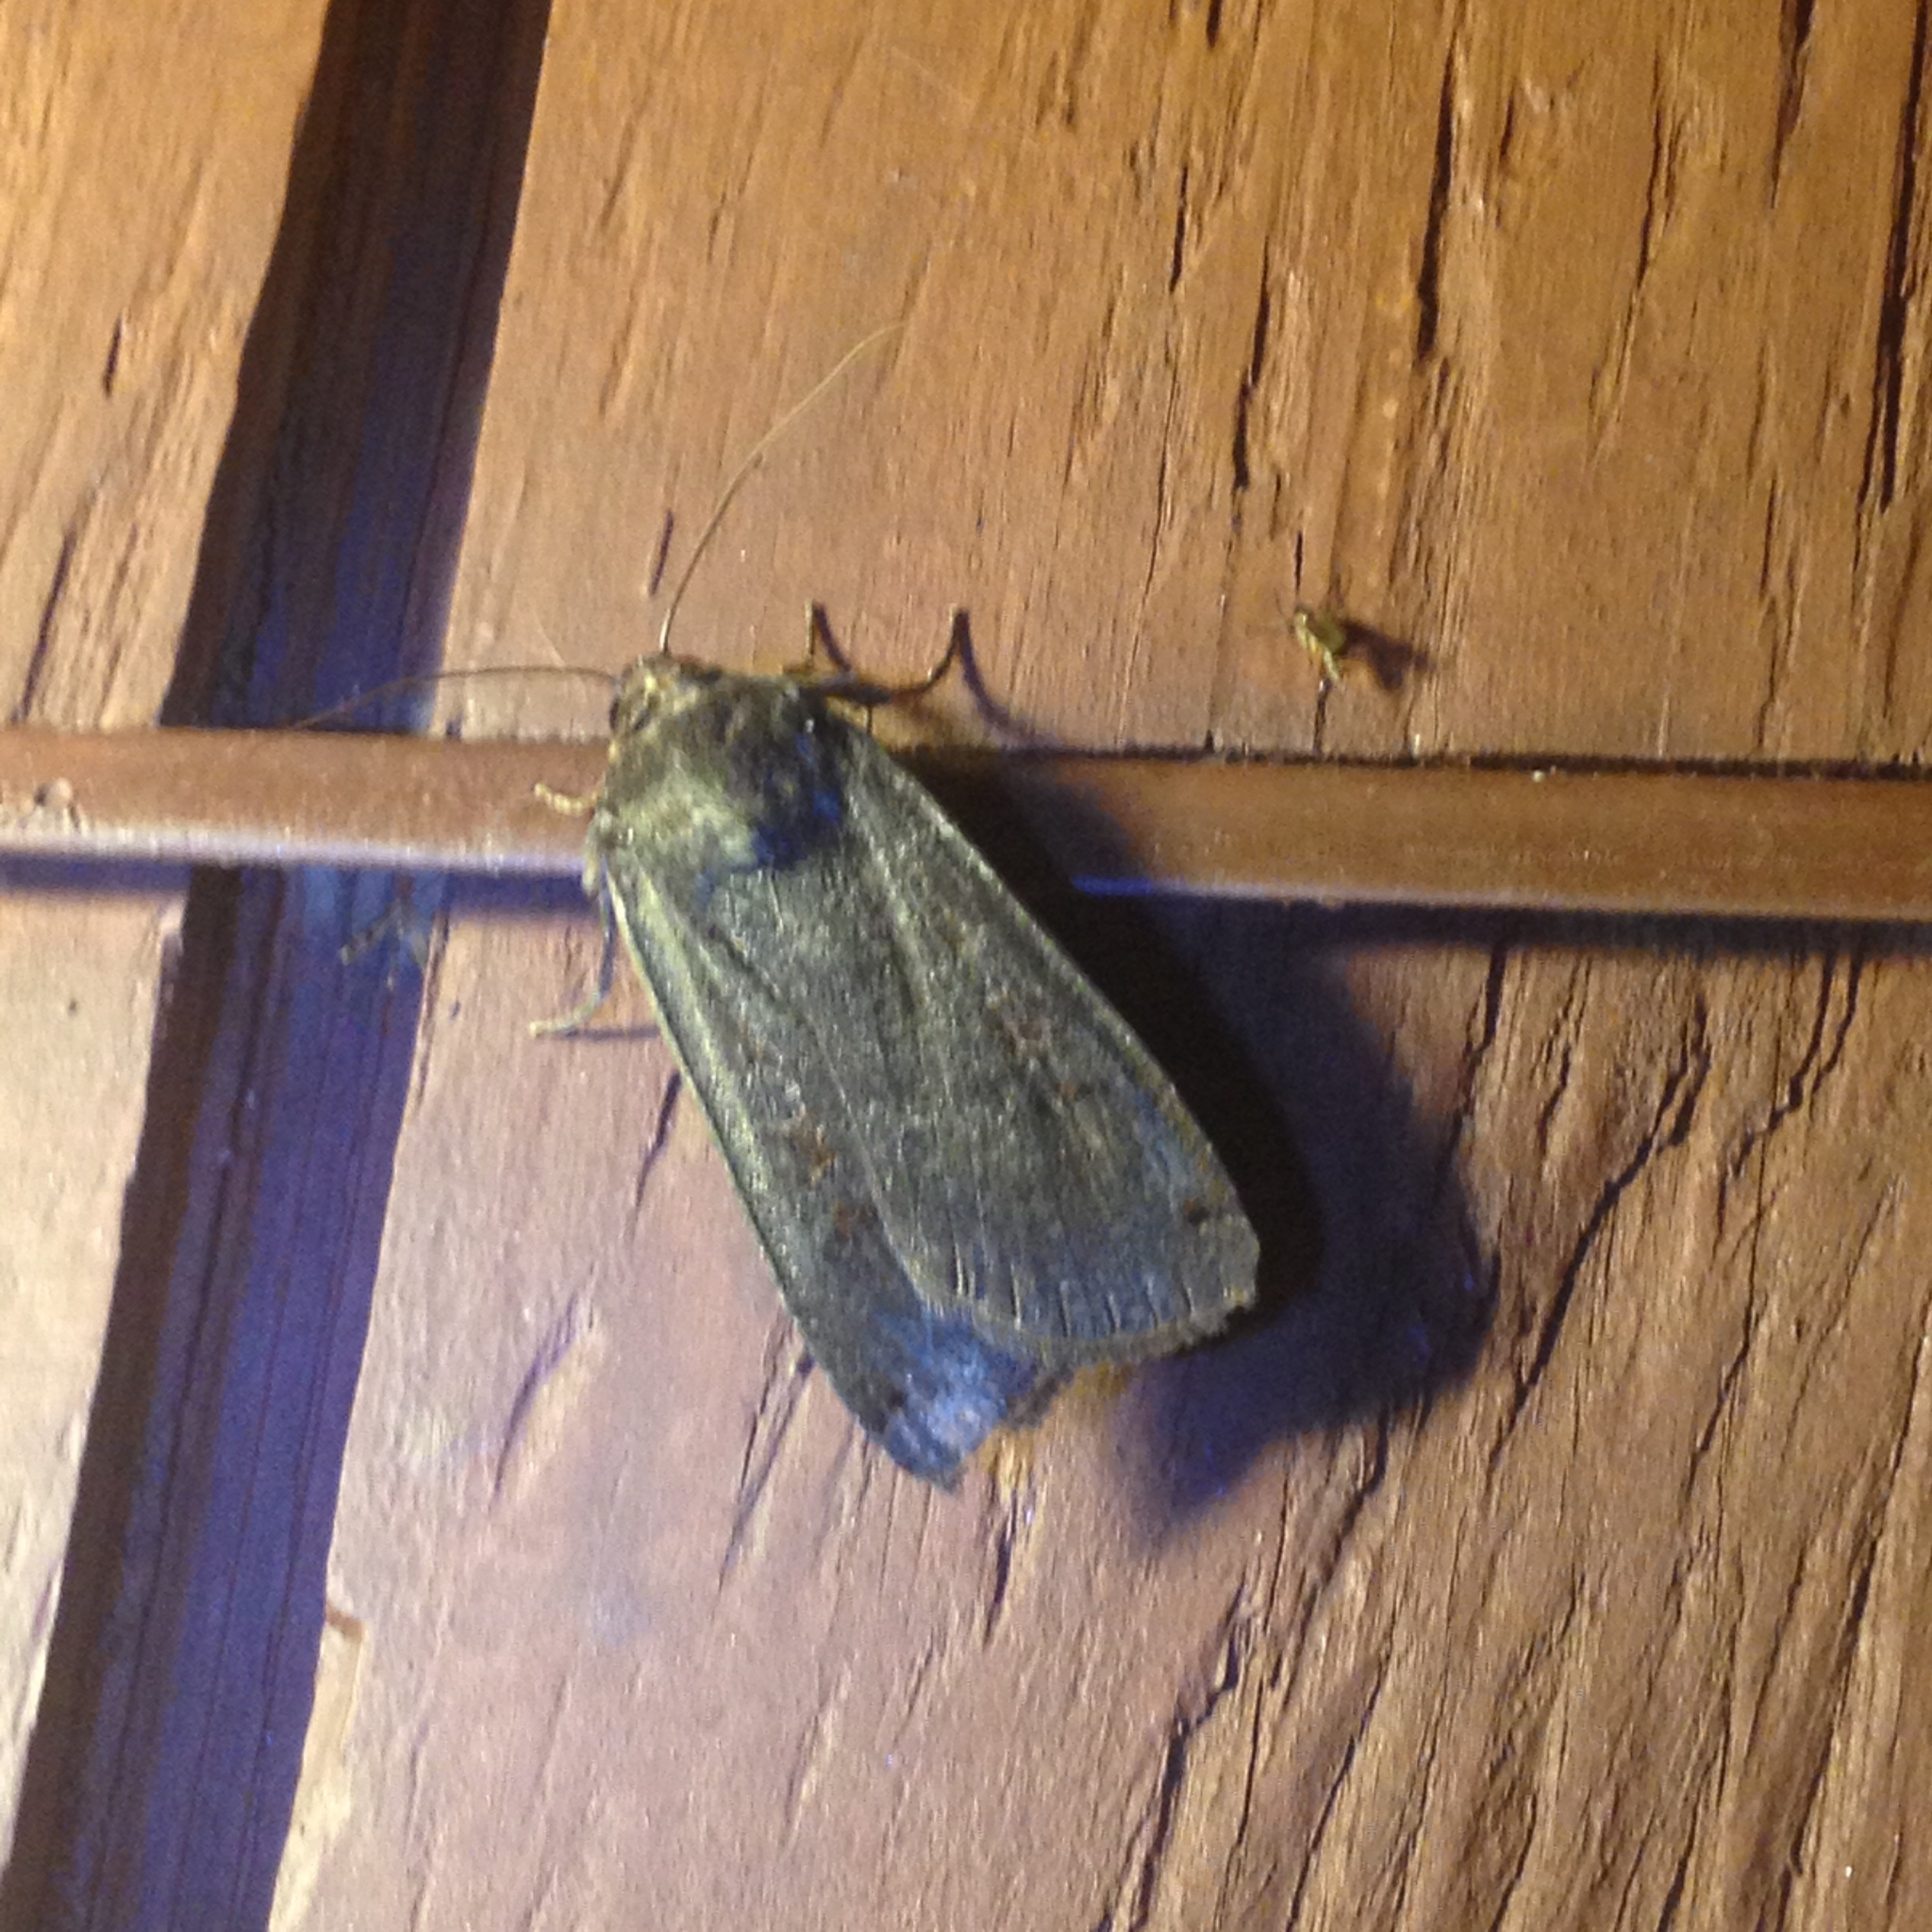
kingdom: Animalia
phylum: Arthropoda
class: Insecta
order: Lepidoptera
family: Noctuidae
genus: Noctua
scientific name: Noctua pronuba
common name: Large yellow underwing
